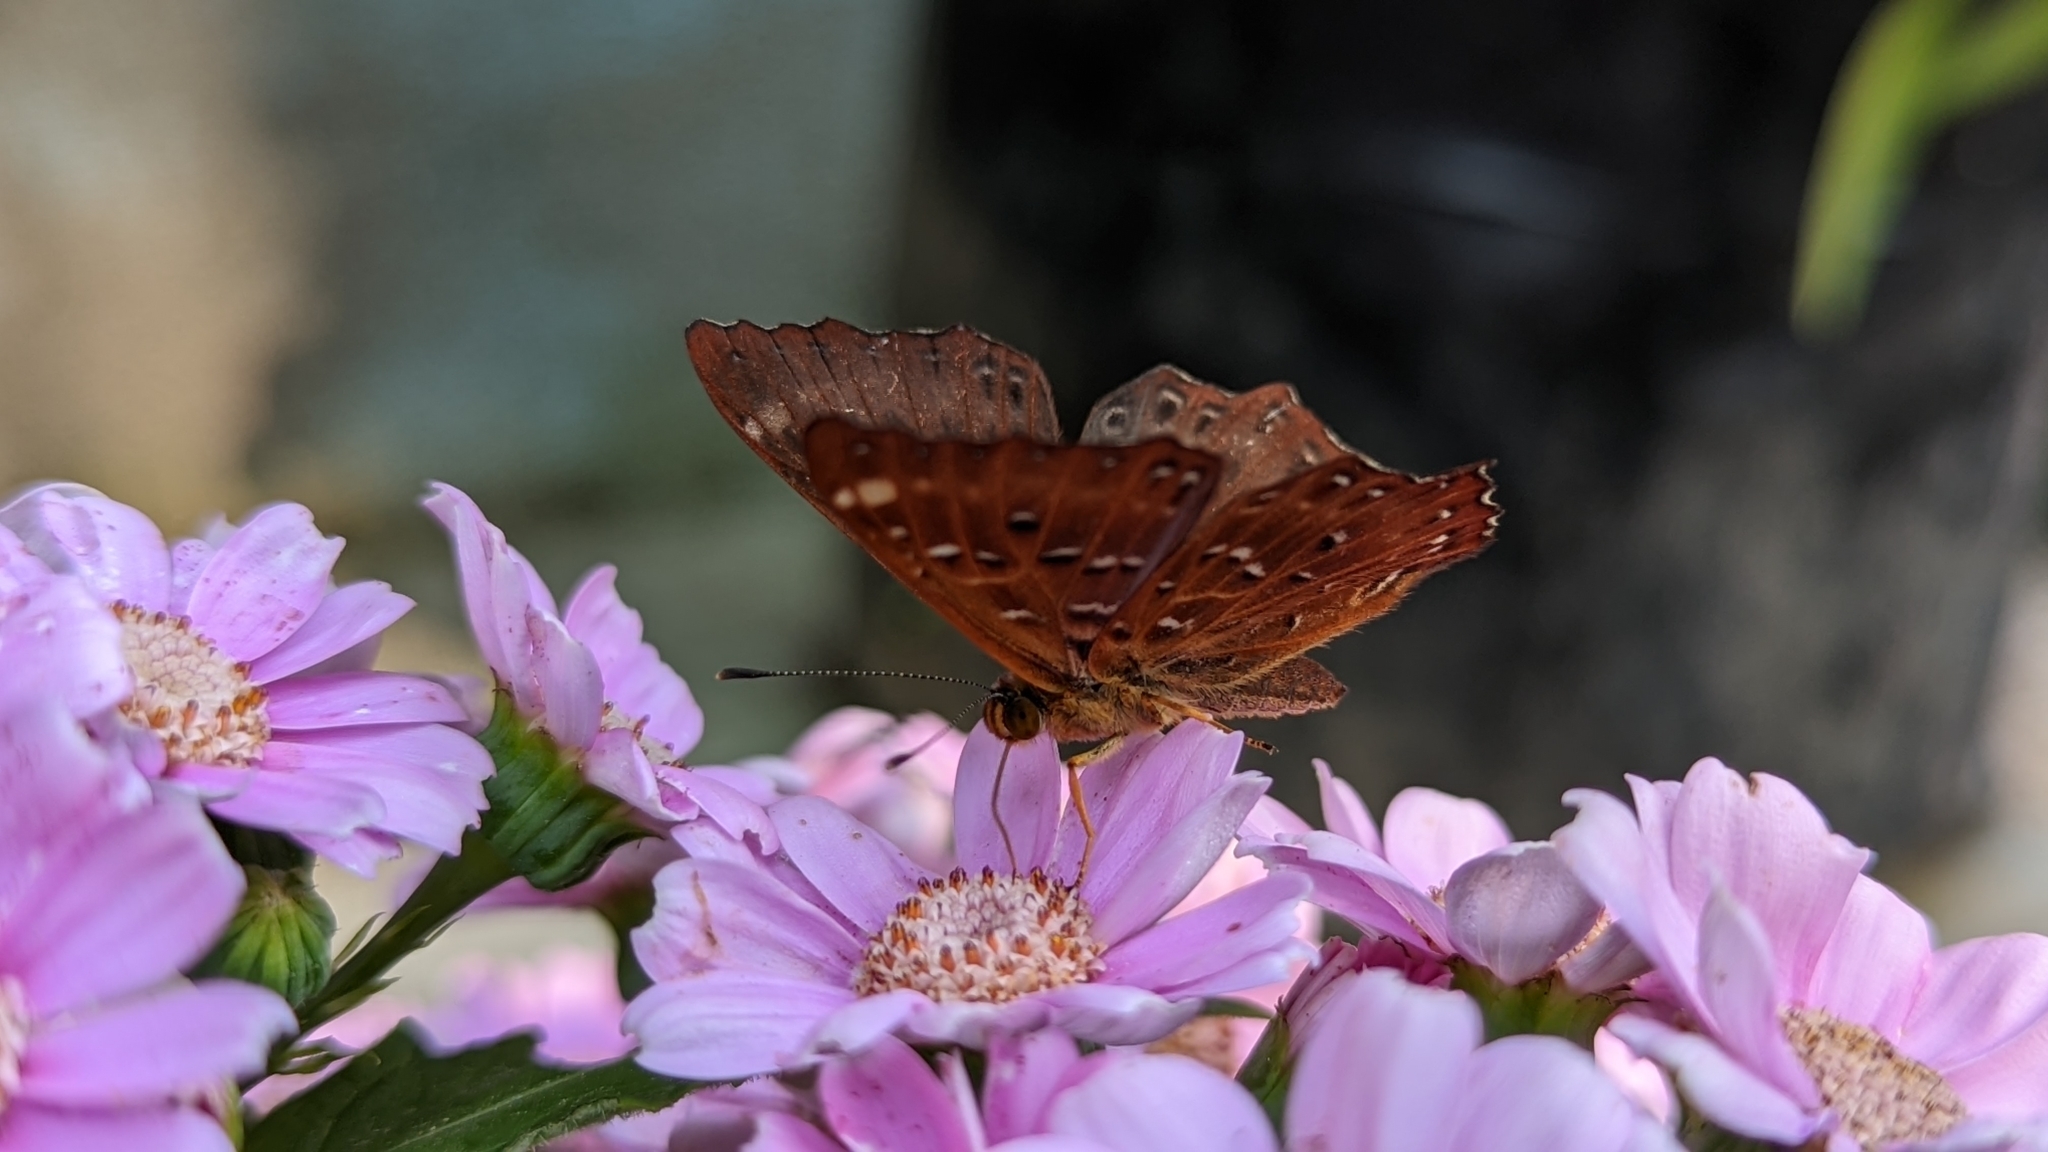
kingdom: Animalia
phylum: Arthropoda
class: Insecta
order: Lepidoptera
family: Riodinidae
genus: Zemeros
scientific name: Zemeros flegyas
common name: Punchinello
